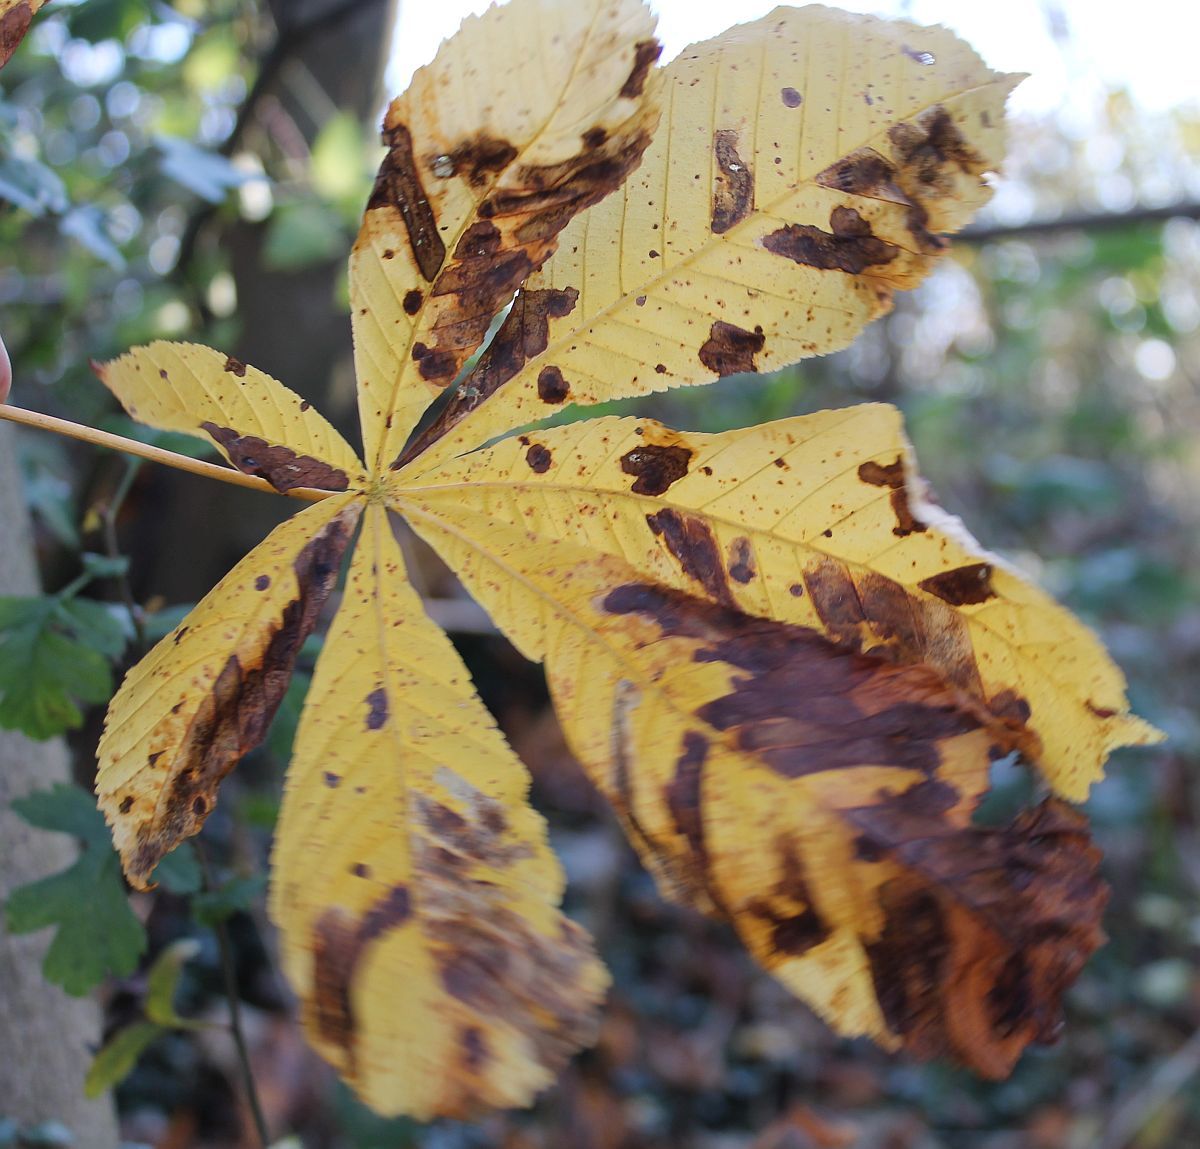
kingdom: Plantae
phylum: Tracheophyta
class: Magnoliopsida
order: Sapindales
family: Sapindaceae
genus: Aesculus
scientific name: Aesculus hippocastanum
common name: Horse-chestnut
